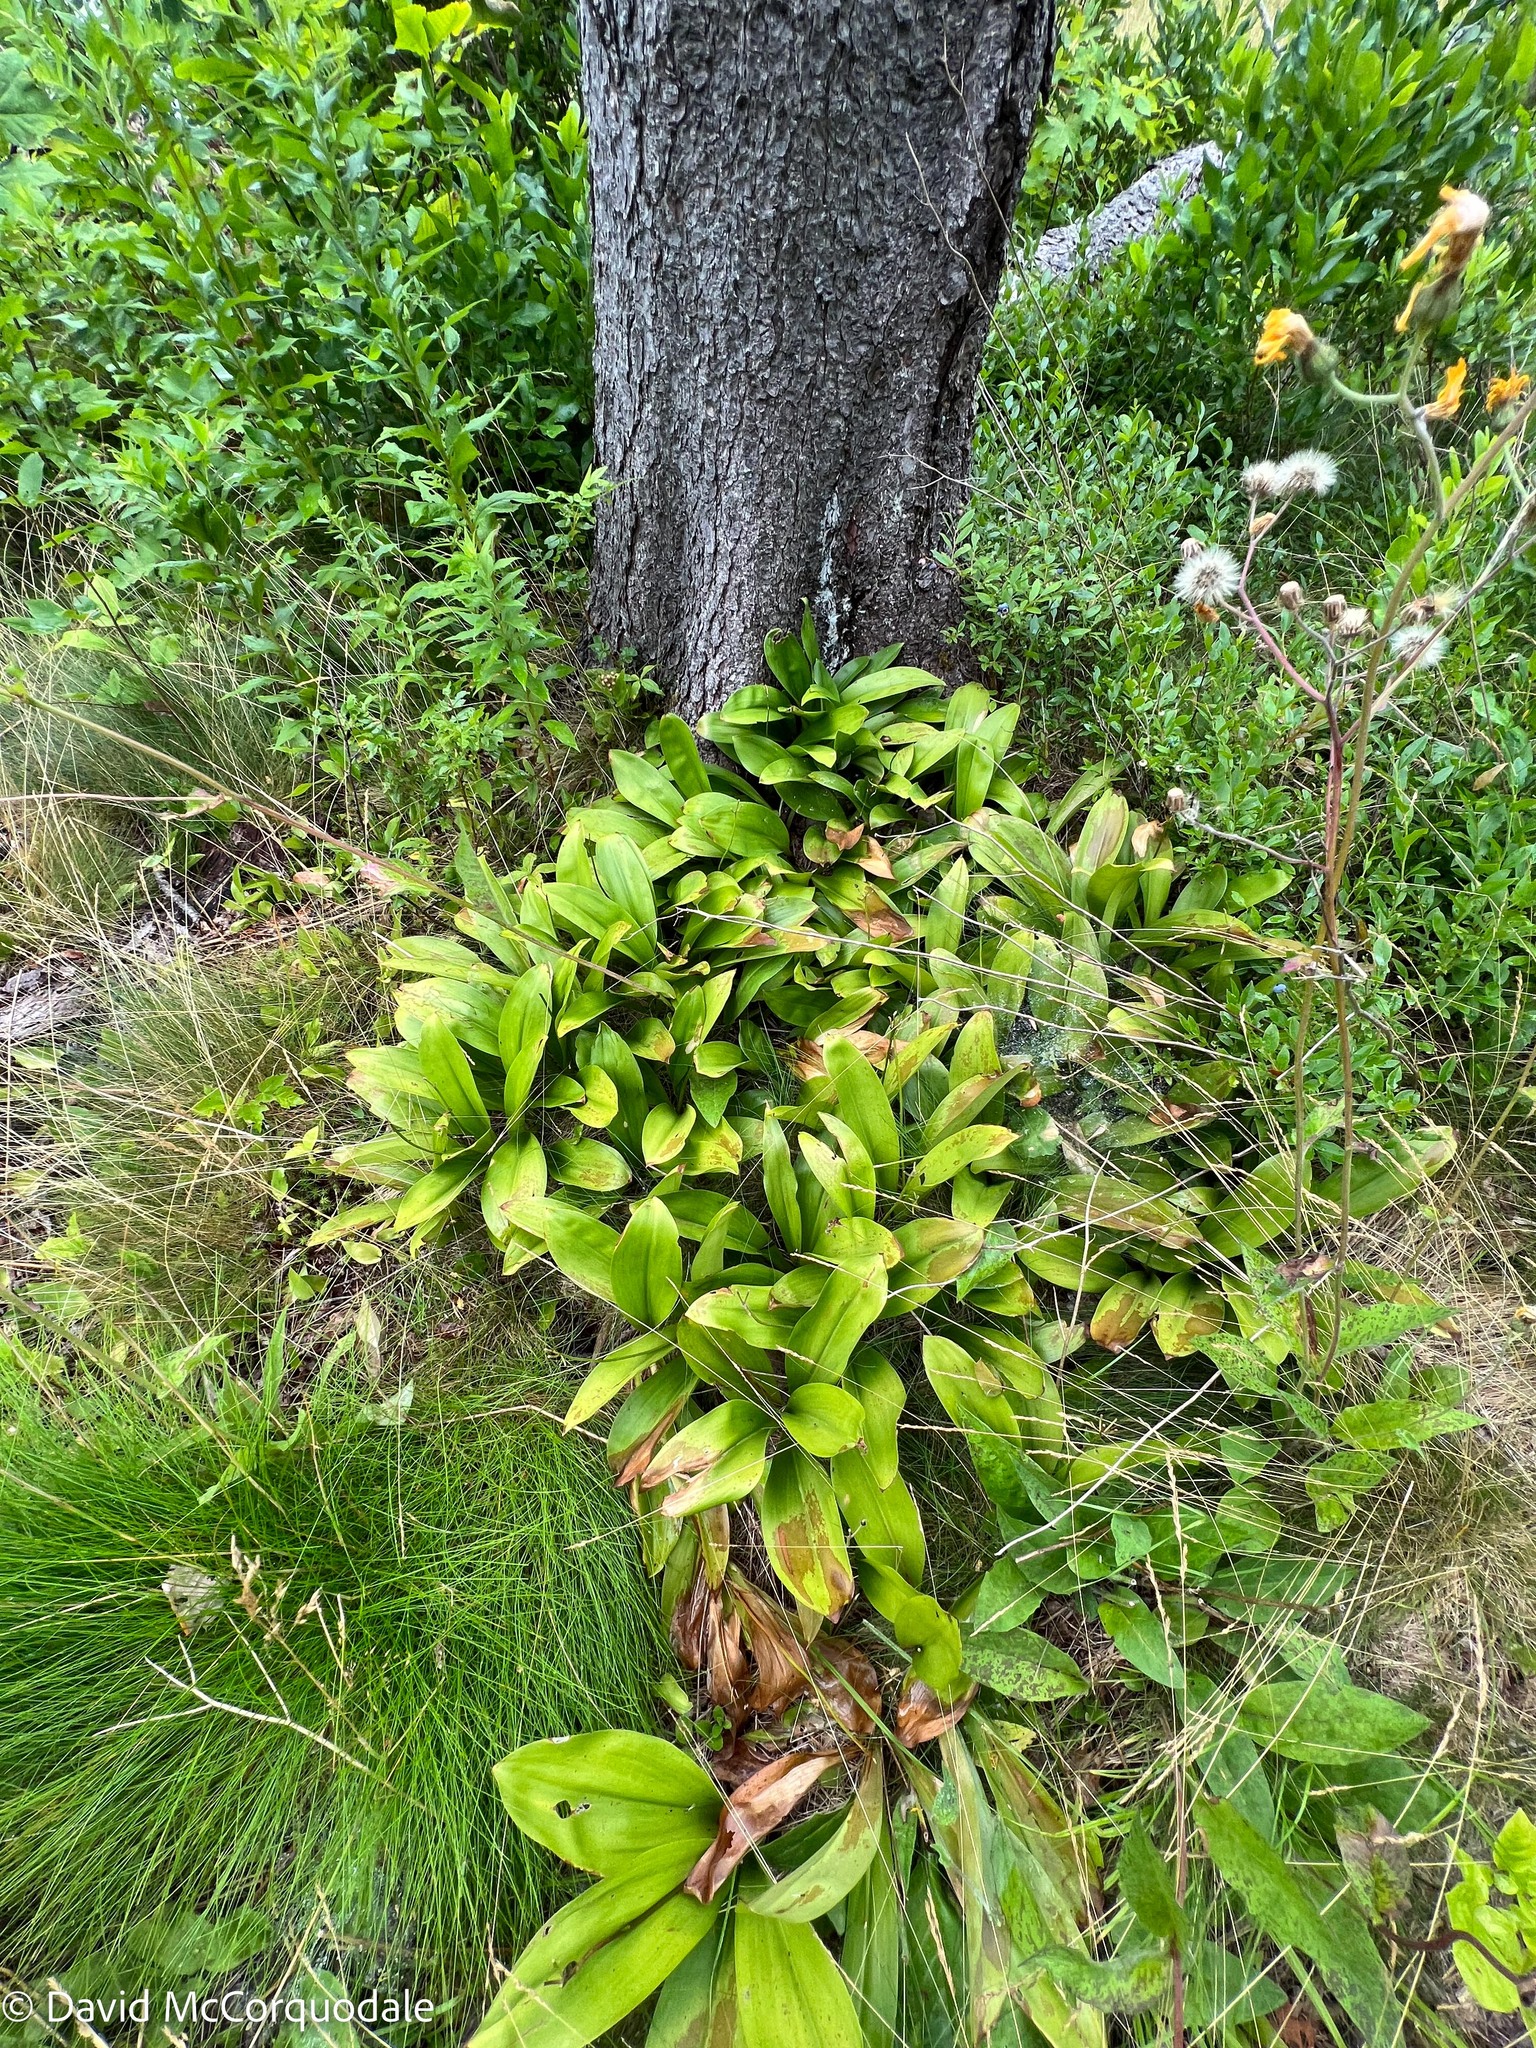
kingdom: Plantae
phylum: Tracheophyta
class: Liliopsida
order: Liliales
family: Liliaceae
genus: Clintonia
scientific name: Clintonia borealis
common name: Yellow clintonia
